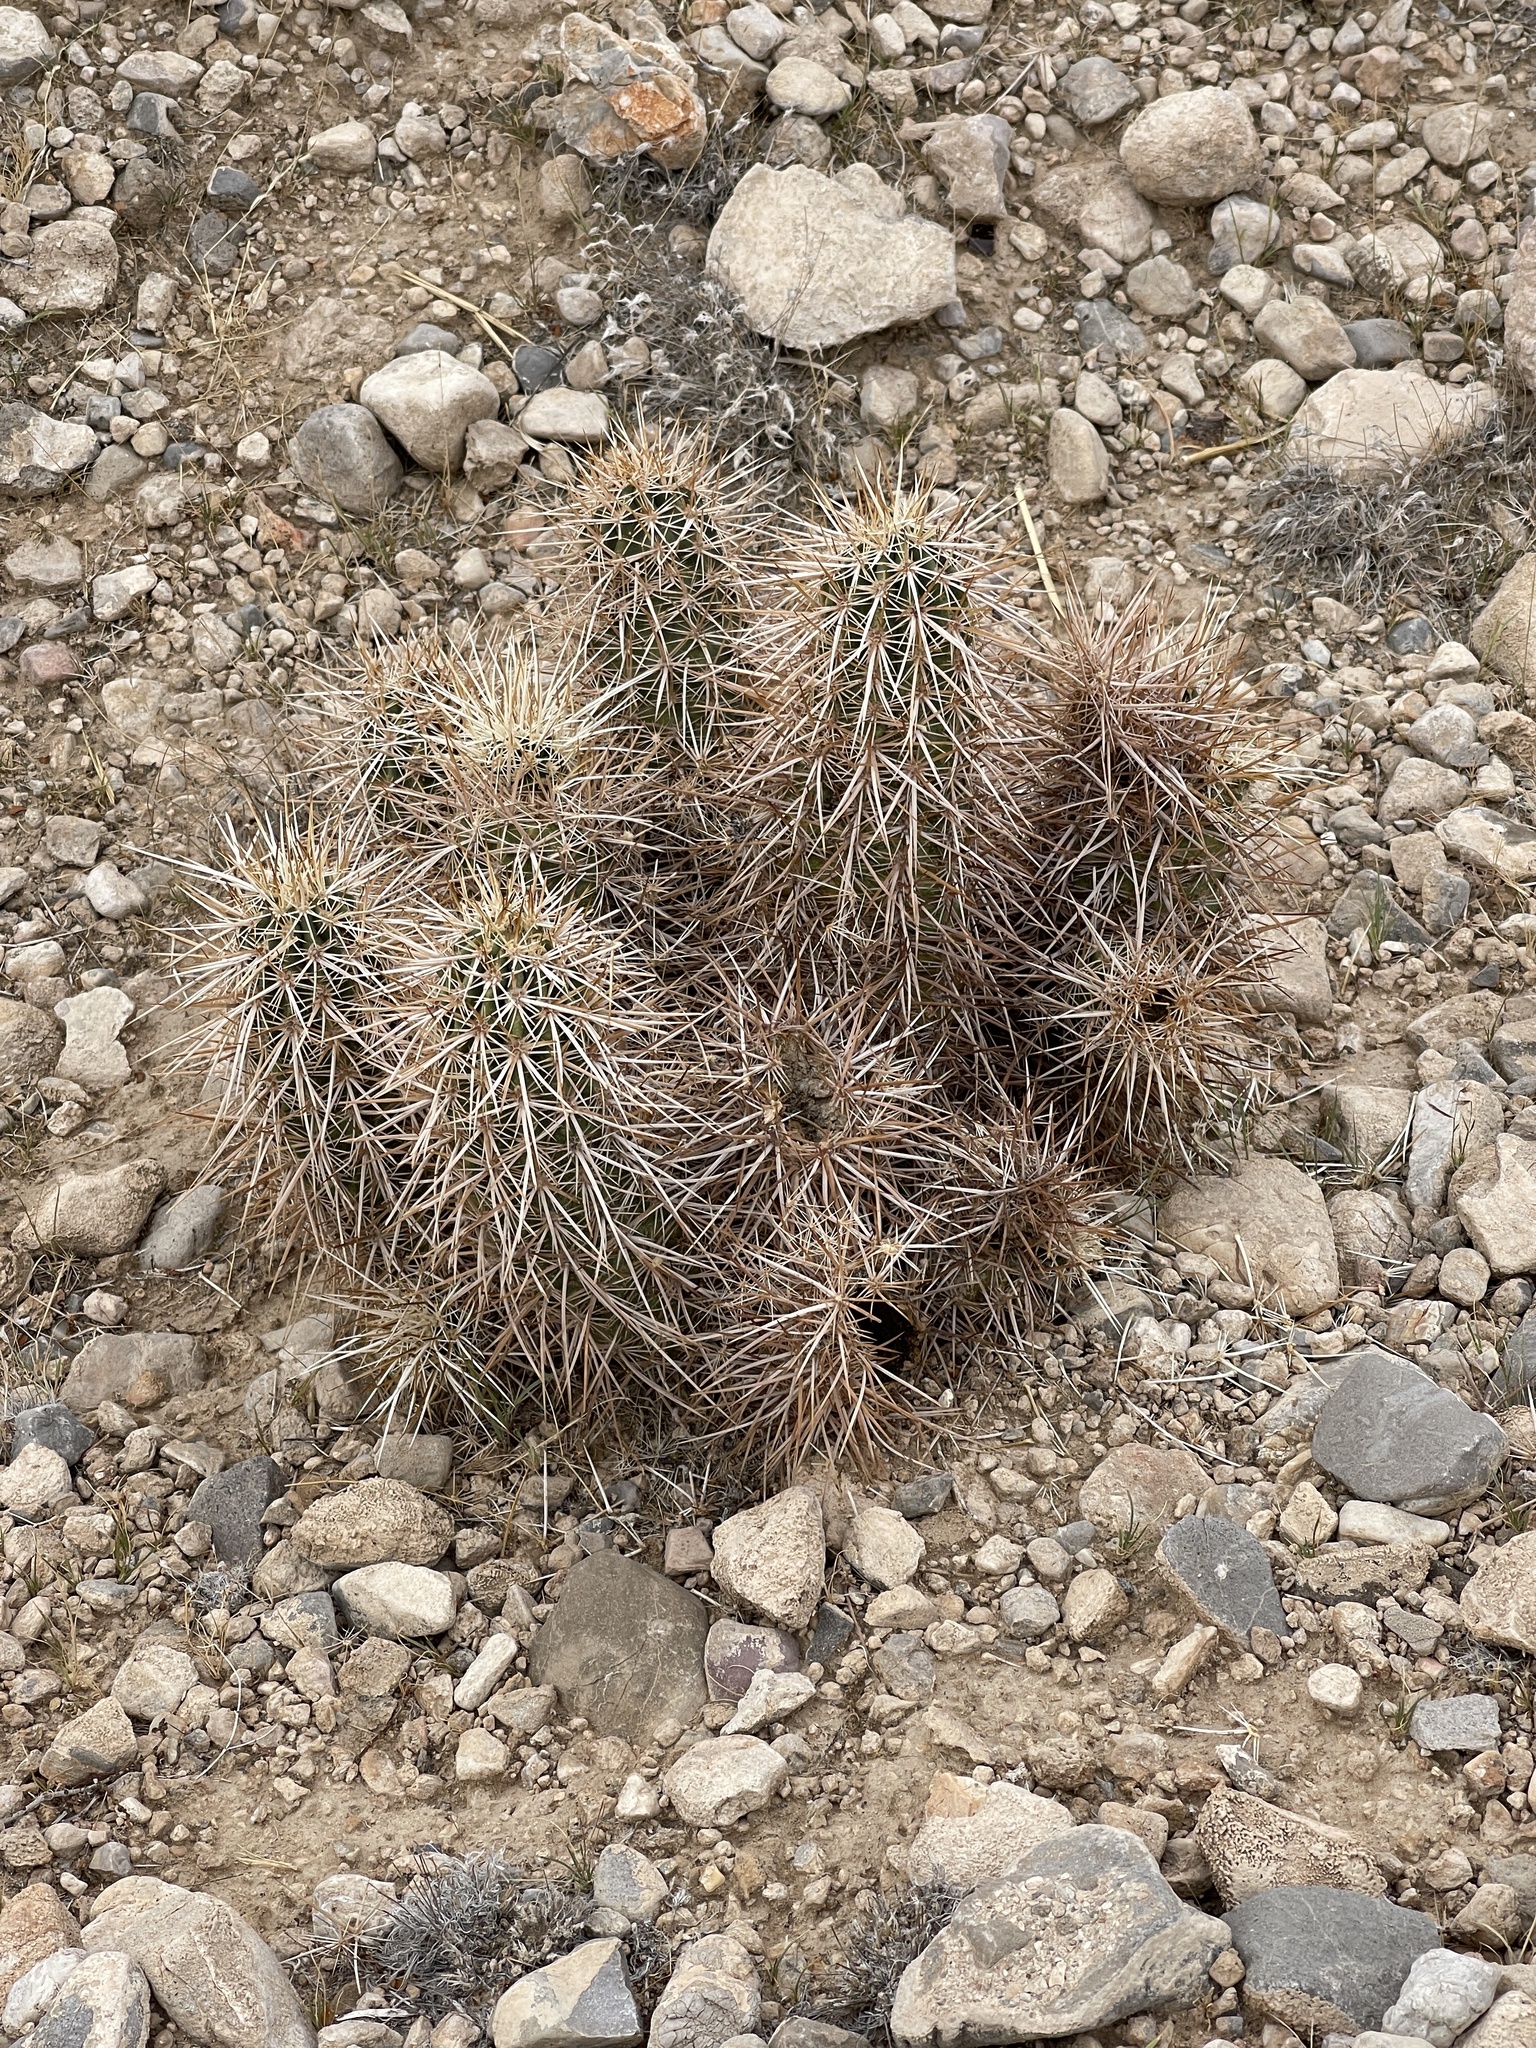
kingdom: Plantae
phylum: Tracheophyta
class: Magnoliopsida
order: Caryophyllales
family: Cactaceae
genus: Echinocereus
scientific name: Echinocereus engelmannii
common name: Engelmann's hedgehog cactus
